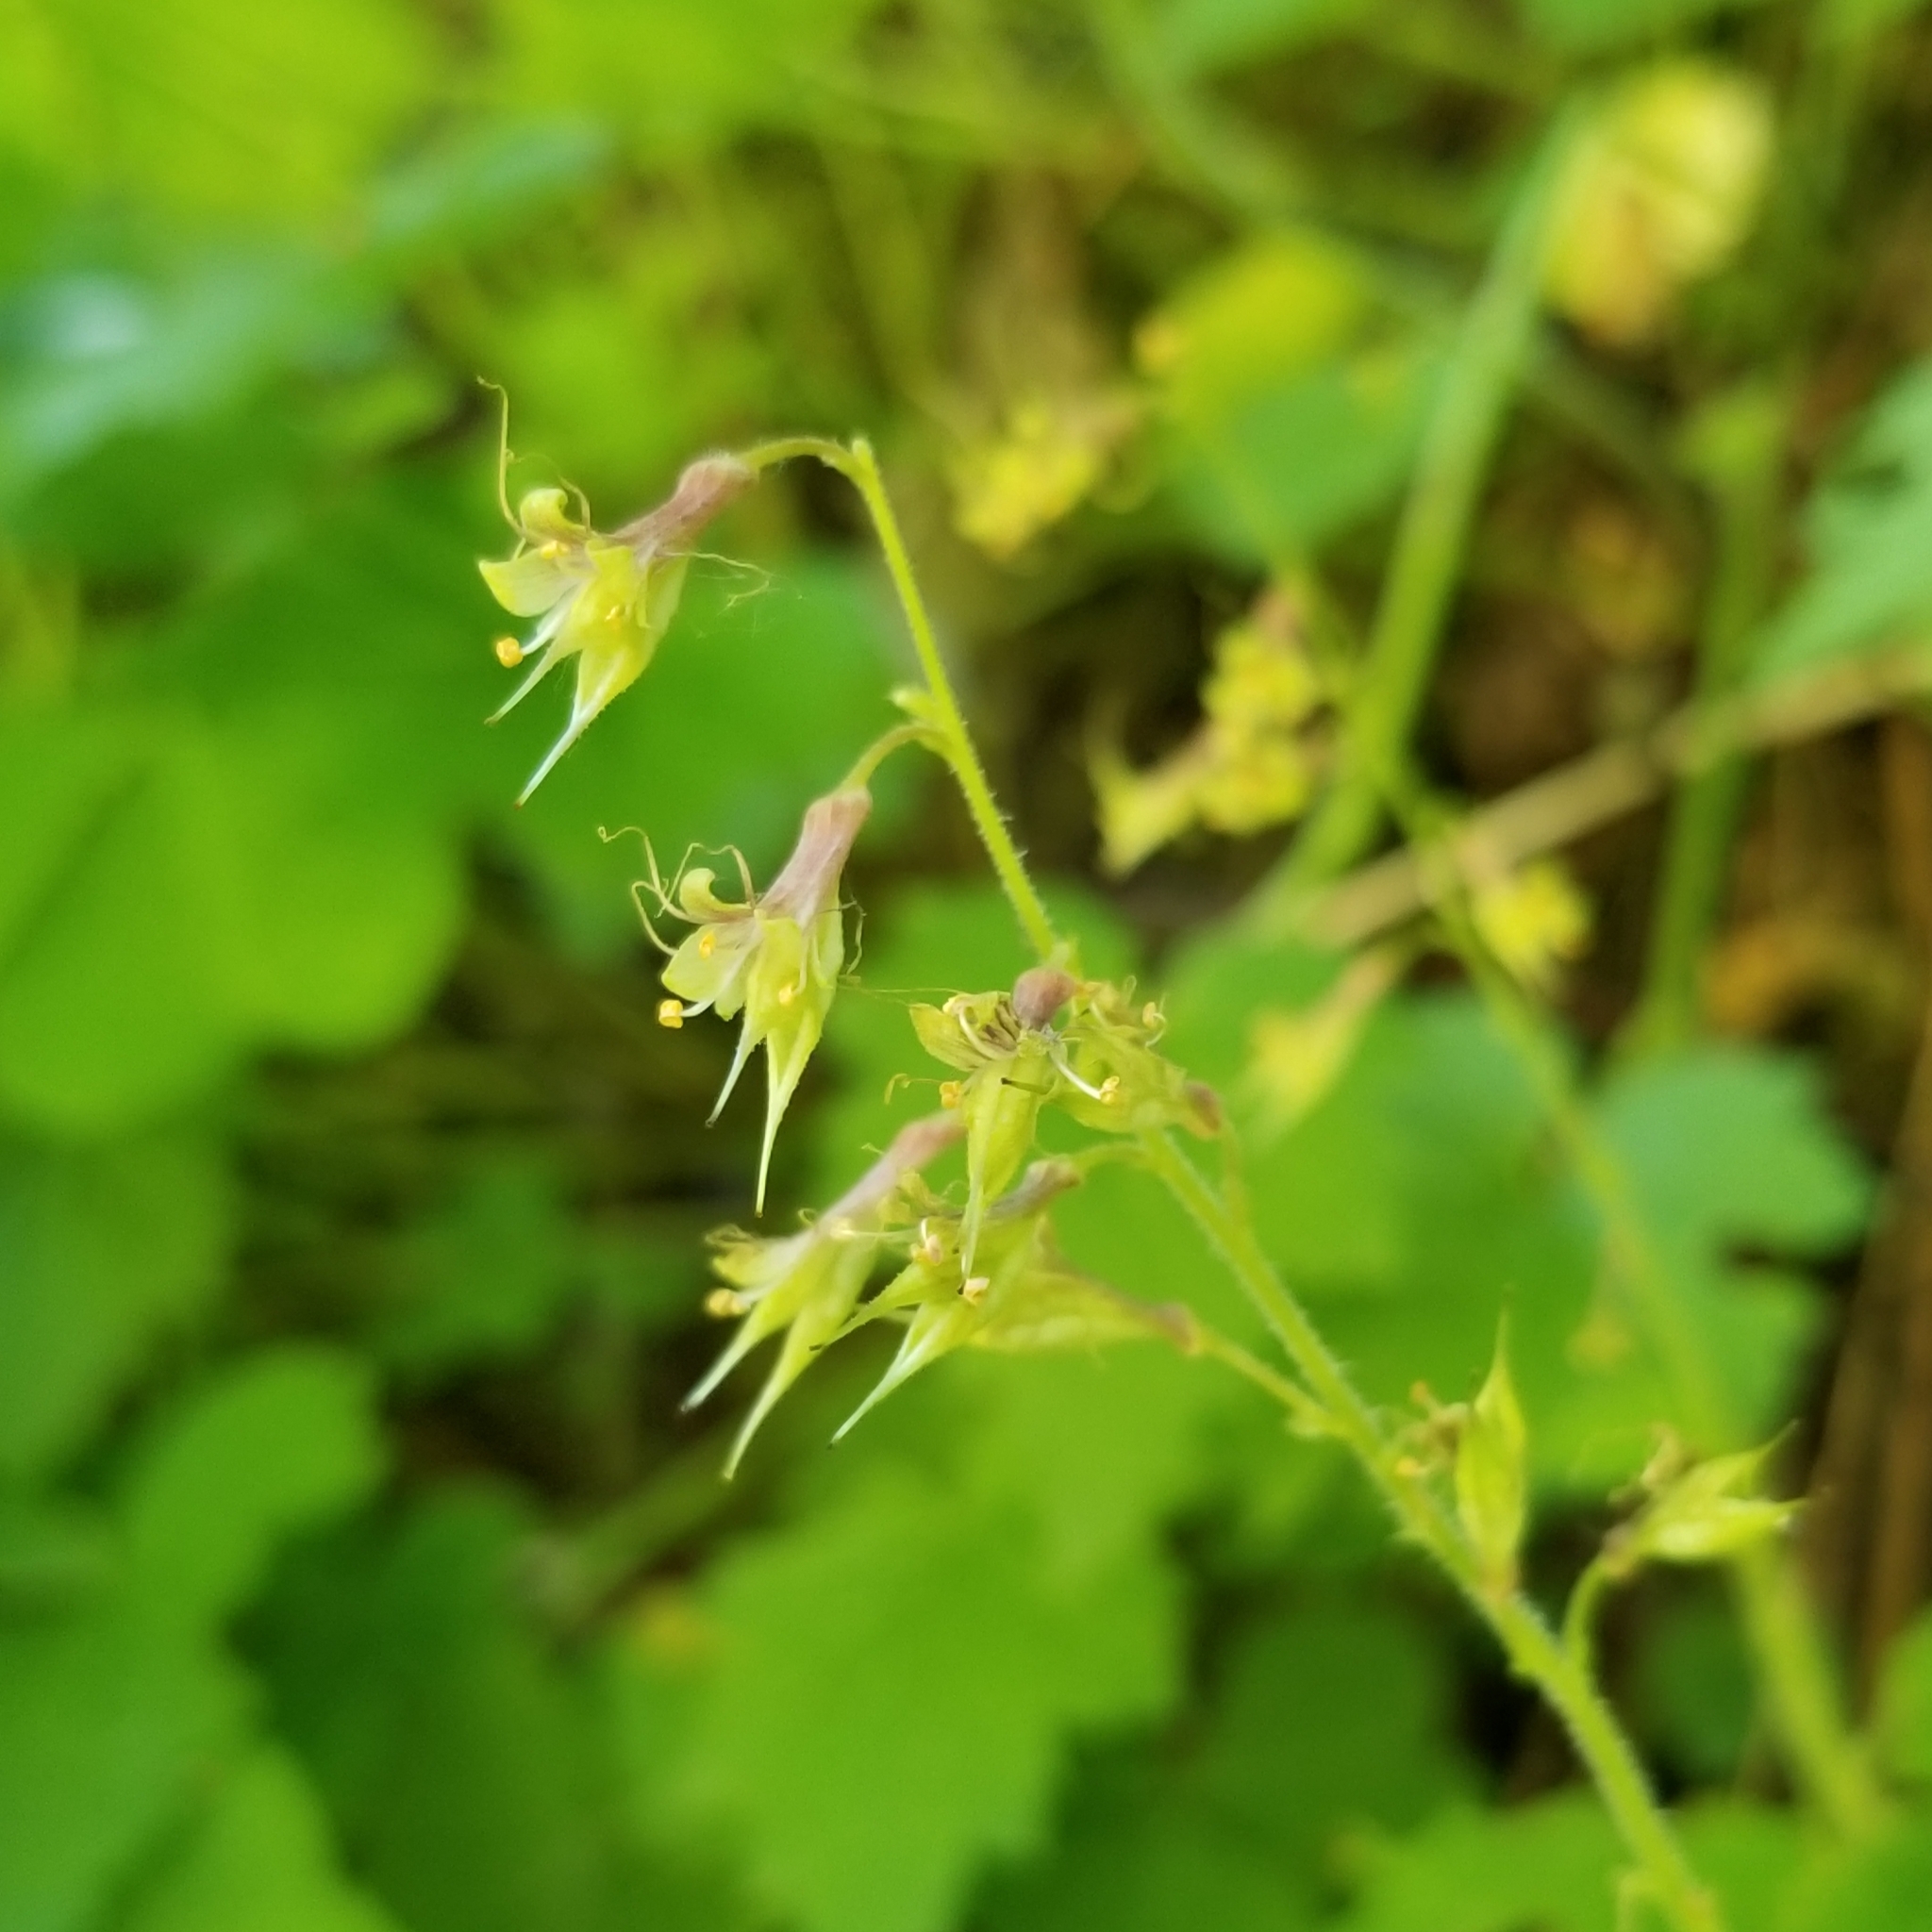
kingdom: Plantae
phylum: Tracheophyta
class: Magnoliopsida
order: Saxifragales
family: Saxifragaceae
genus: Tolmiea
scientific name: Tolmiea menziesii
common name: Pick-a-back-plant
